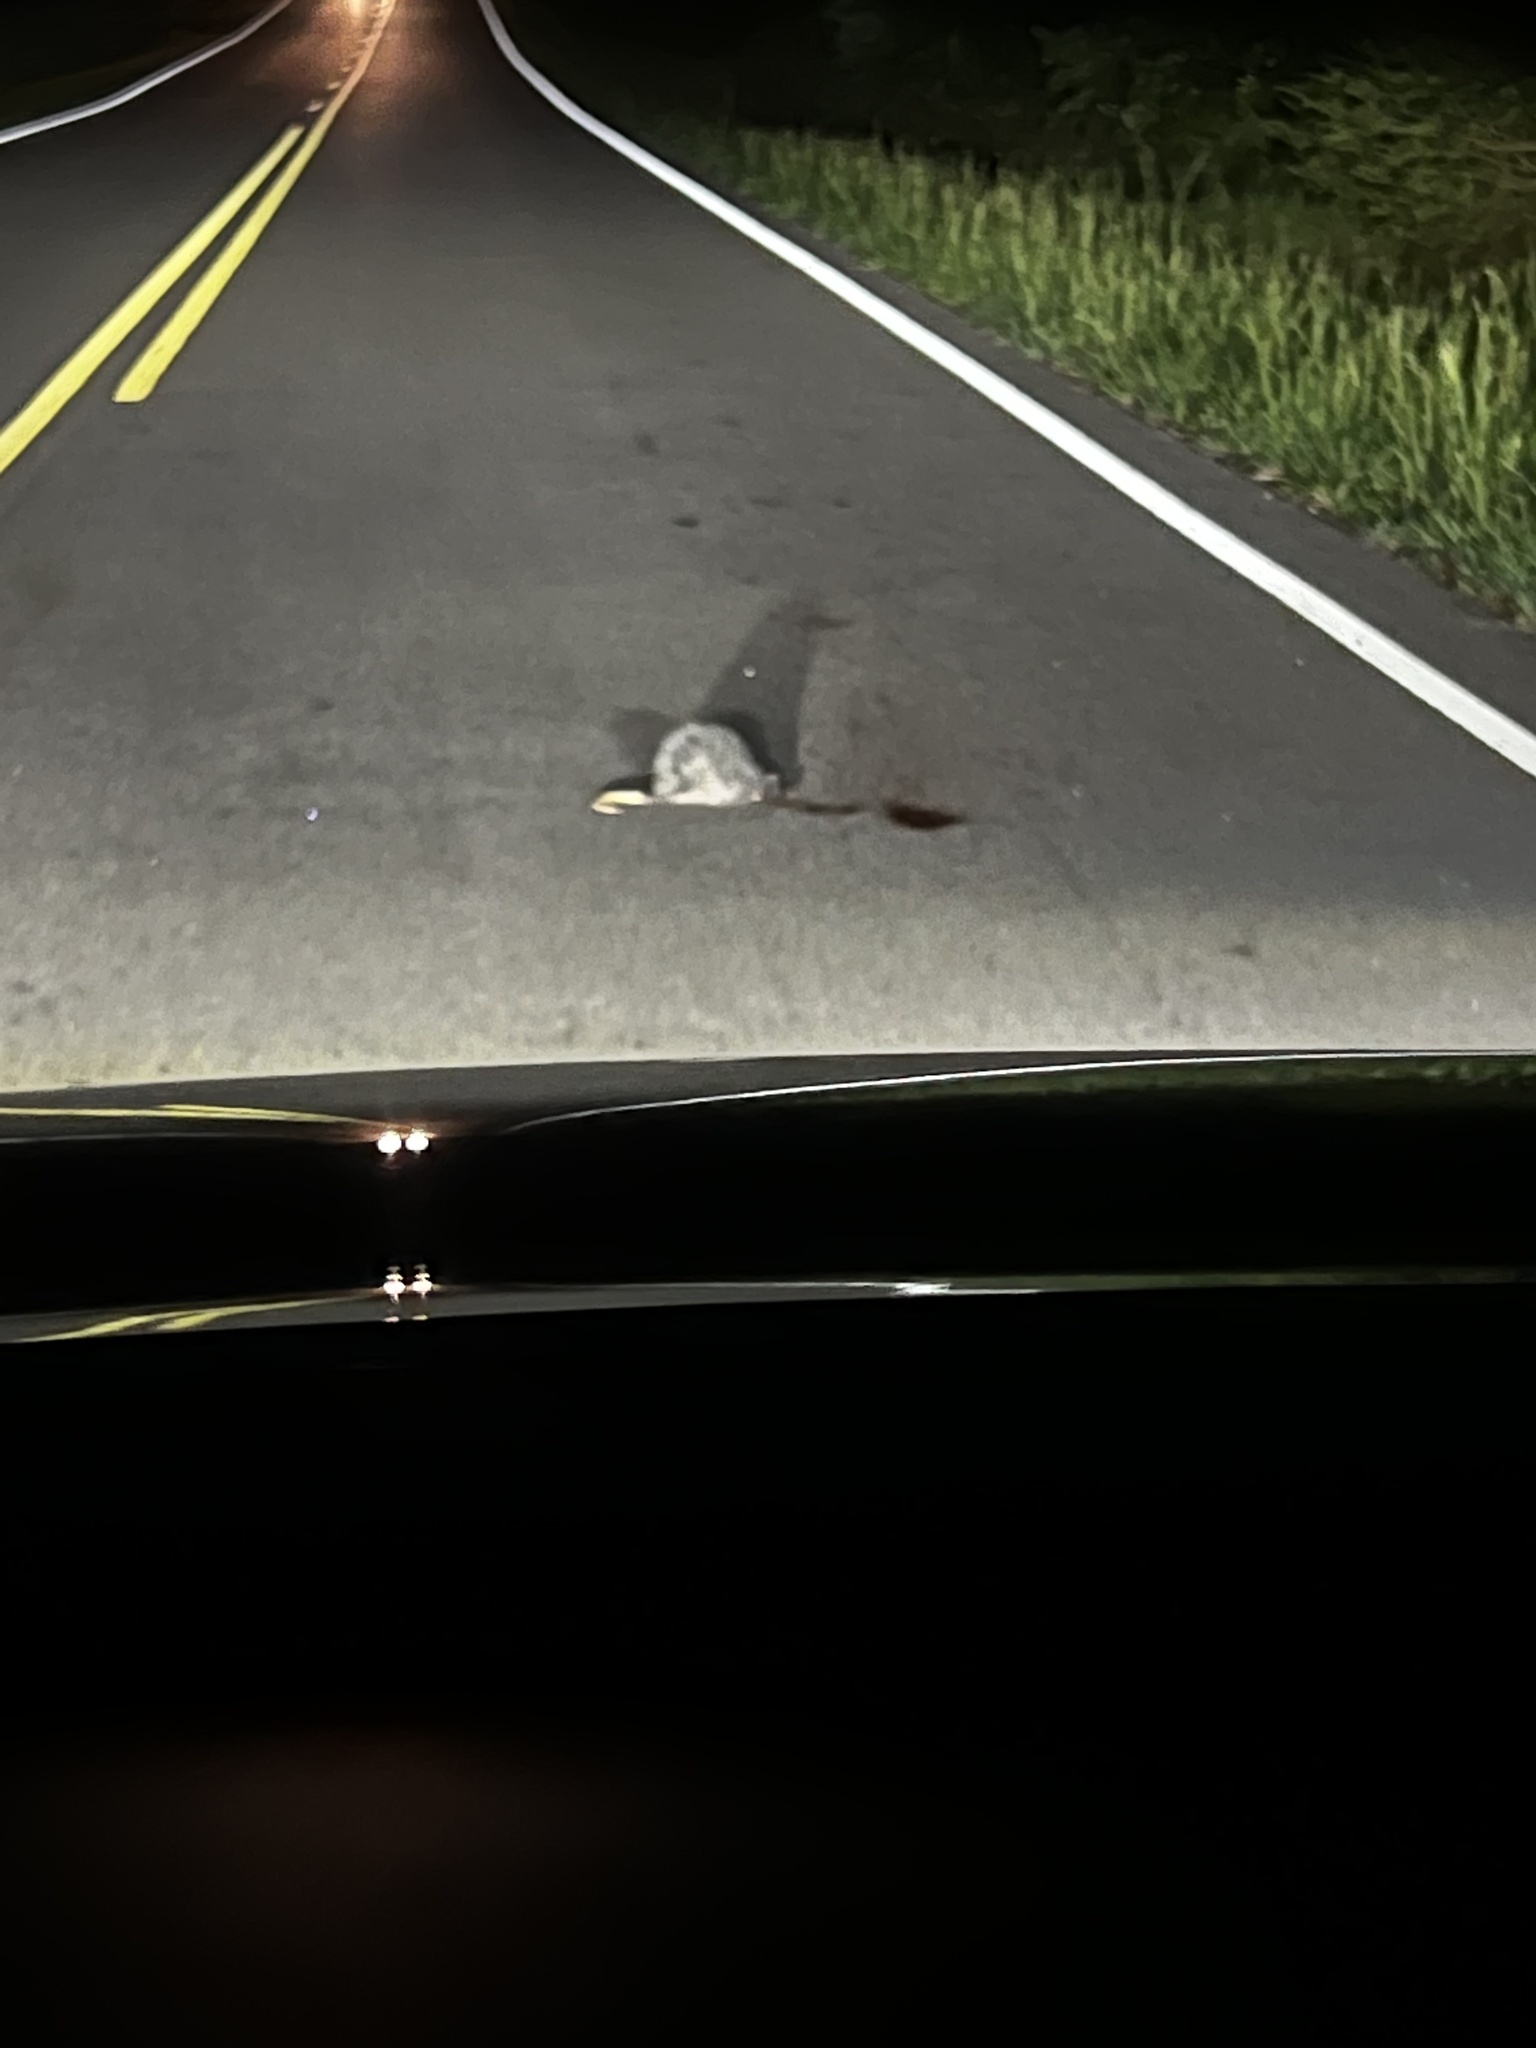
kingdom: Animalia
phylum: Chordata
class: Mammalia
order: Didelphimorphia
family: Didelphidae
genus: Didelphis
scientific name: Didelphis virginiana
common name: Virginia opossum
